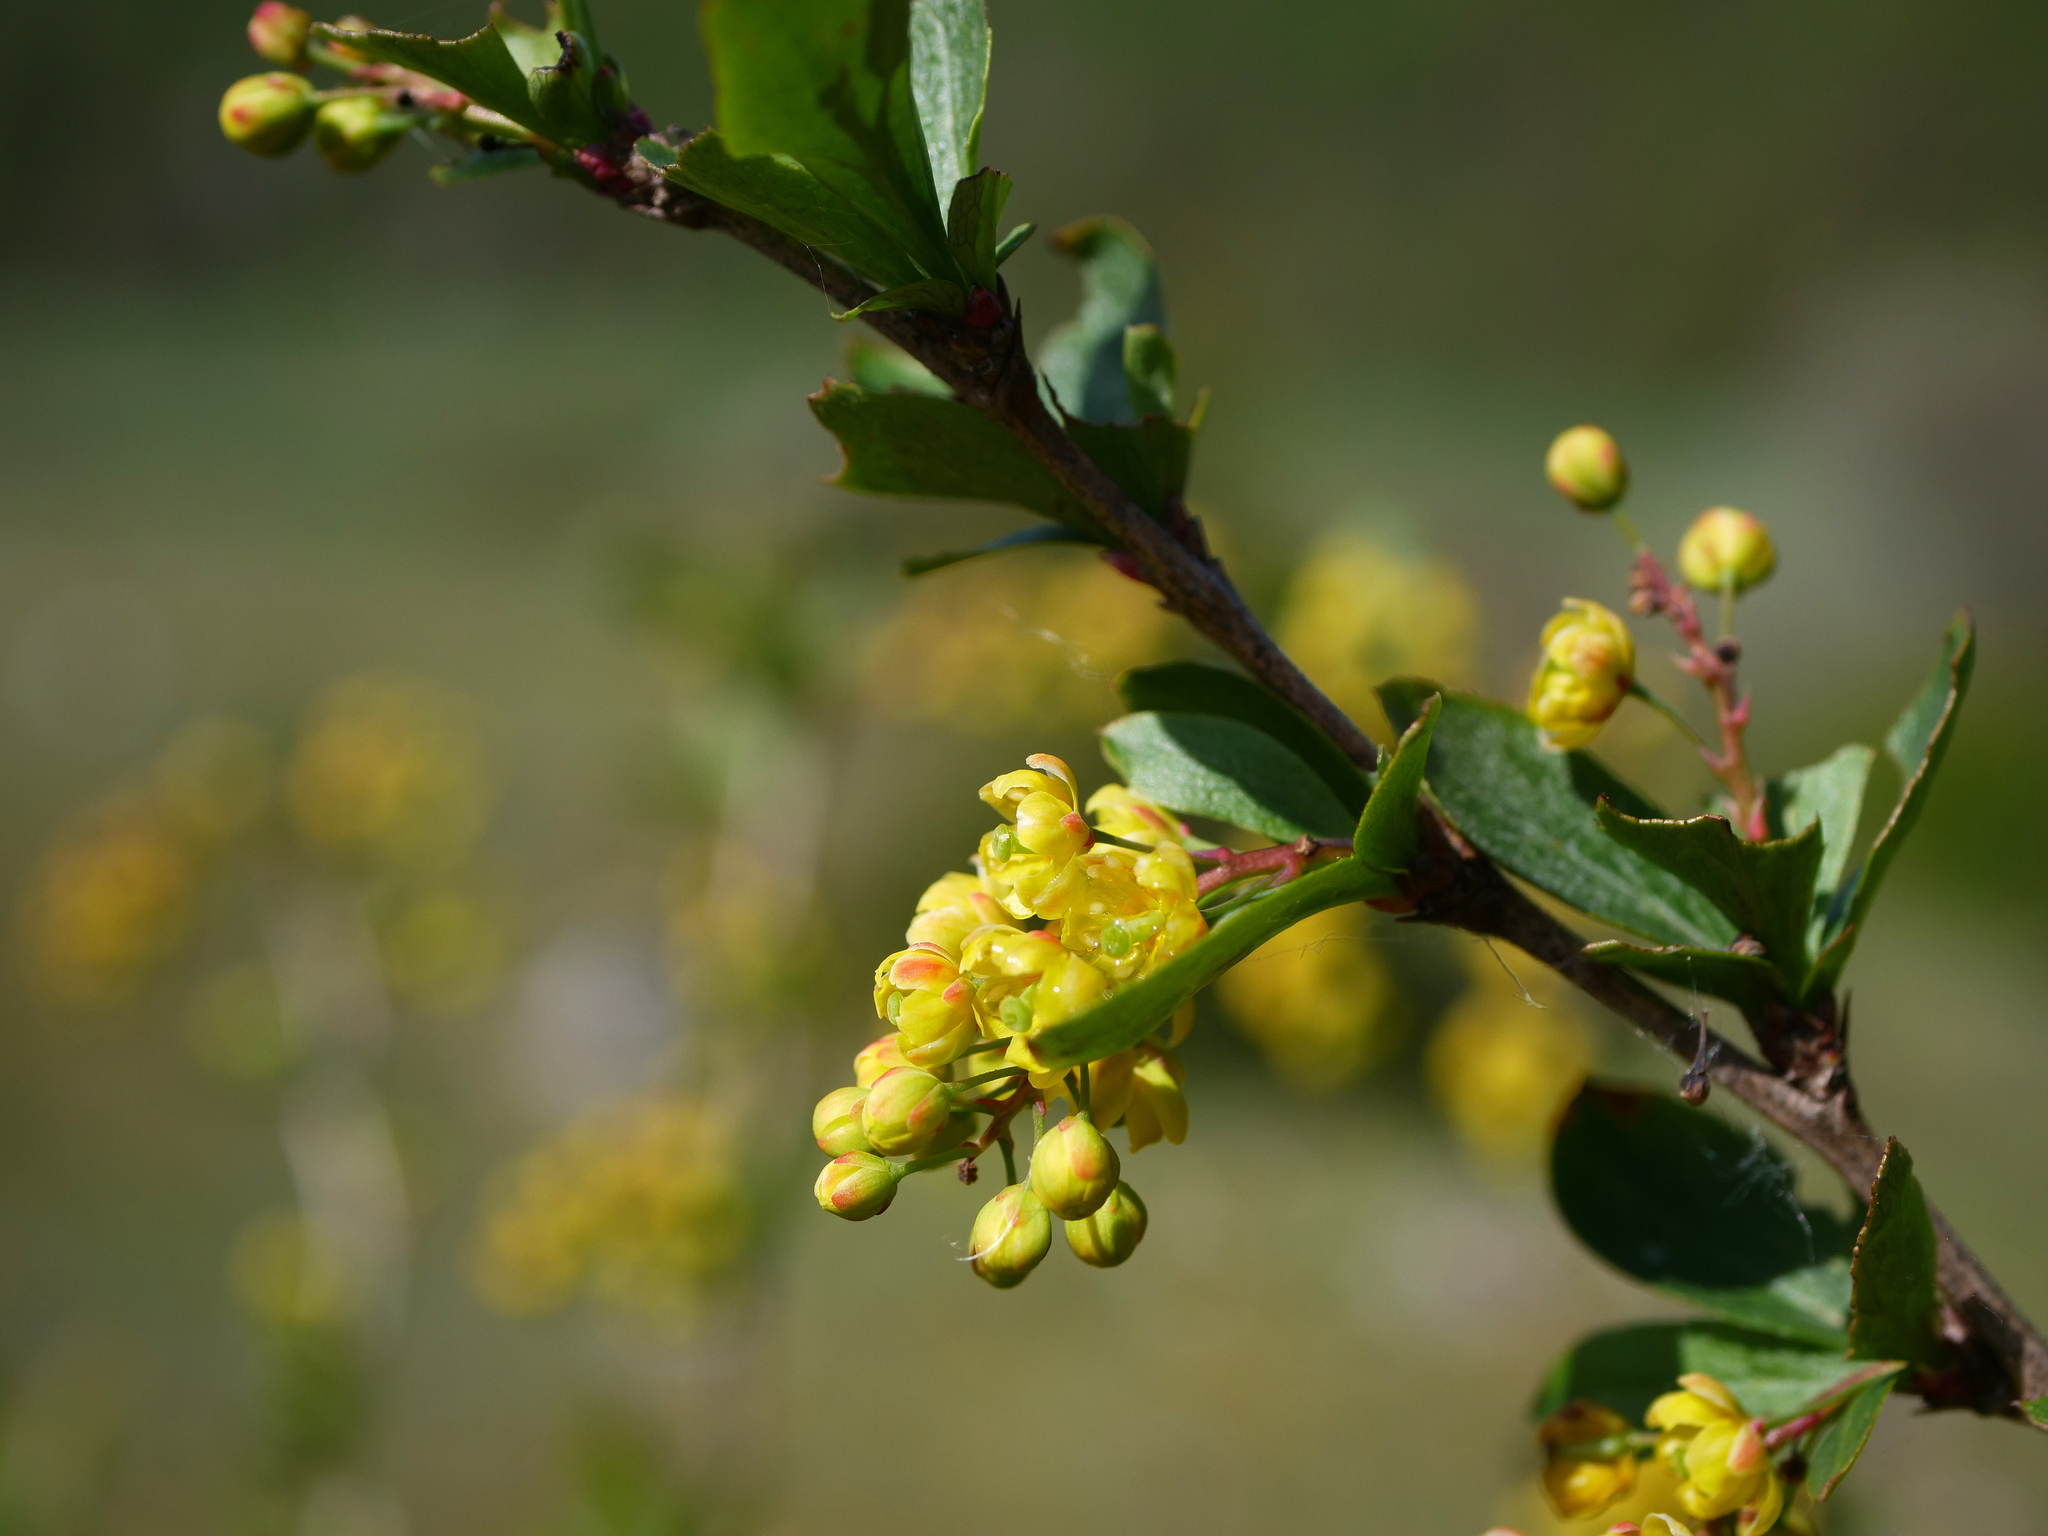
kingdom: Plantae
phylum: Tracheophyta
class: Magnoliopsida
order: Ranunculales
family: Berberidaceae
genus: Berberis
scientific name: Berberis vulgaris
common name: Barberry
